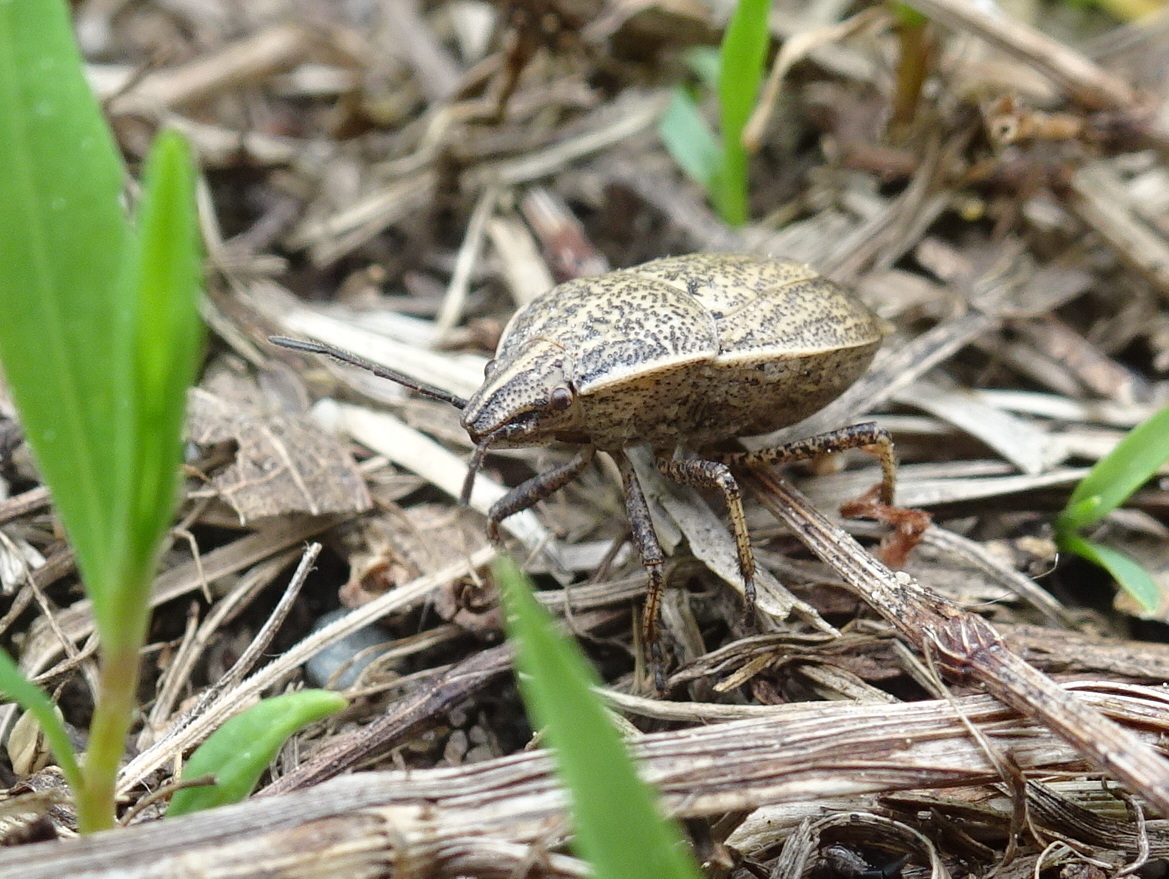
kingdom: Animalia
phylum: Arthropoda
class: Insecta
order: Hemiptera
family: Pentatomidae
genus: Coenus
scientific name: Coenus delius
